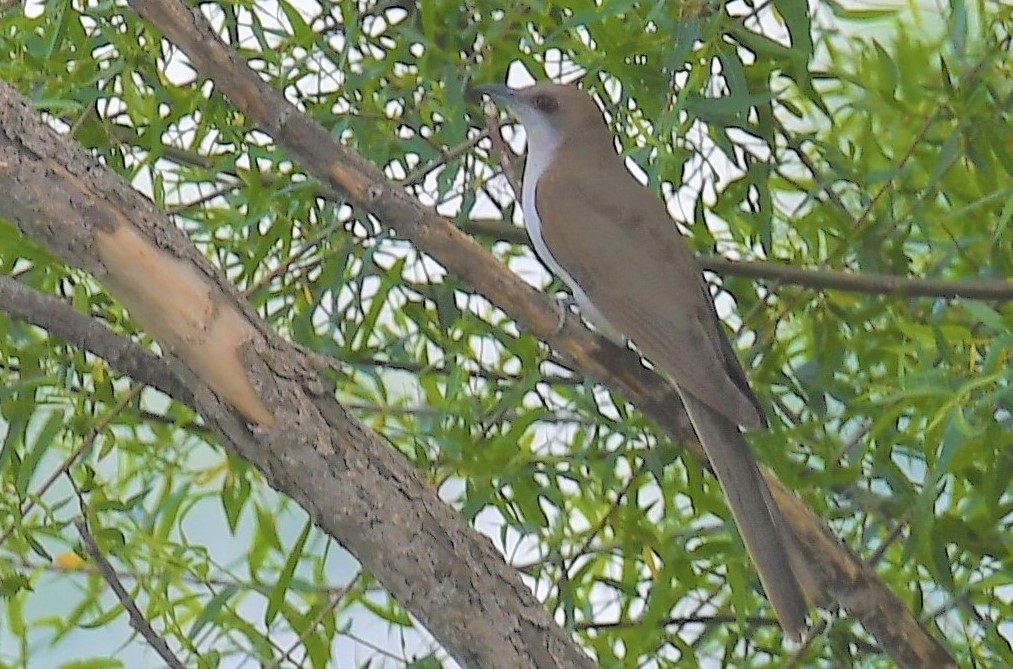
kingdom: Animalia
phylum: Chordata
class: Aves
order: Cuculiformes
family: Cuculidae
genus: Coccyzus
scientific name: Coccyzus erythropthalmus
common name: Black-billed cuckoo
